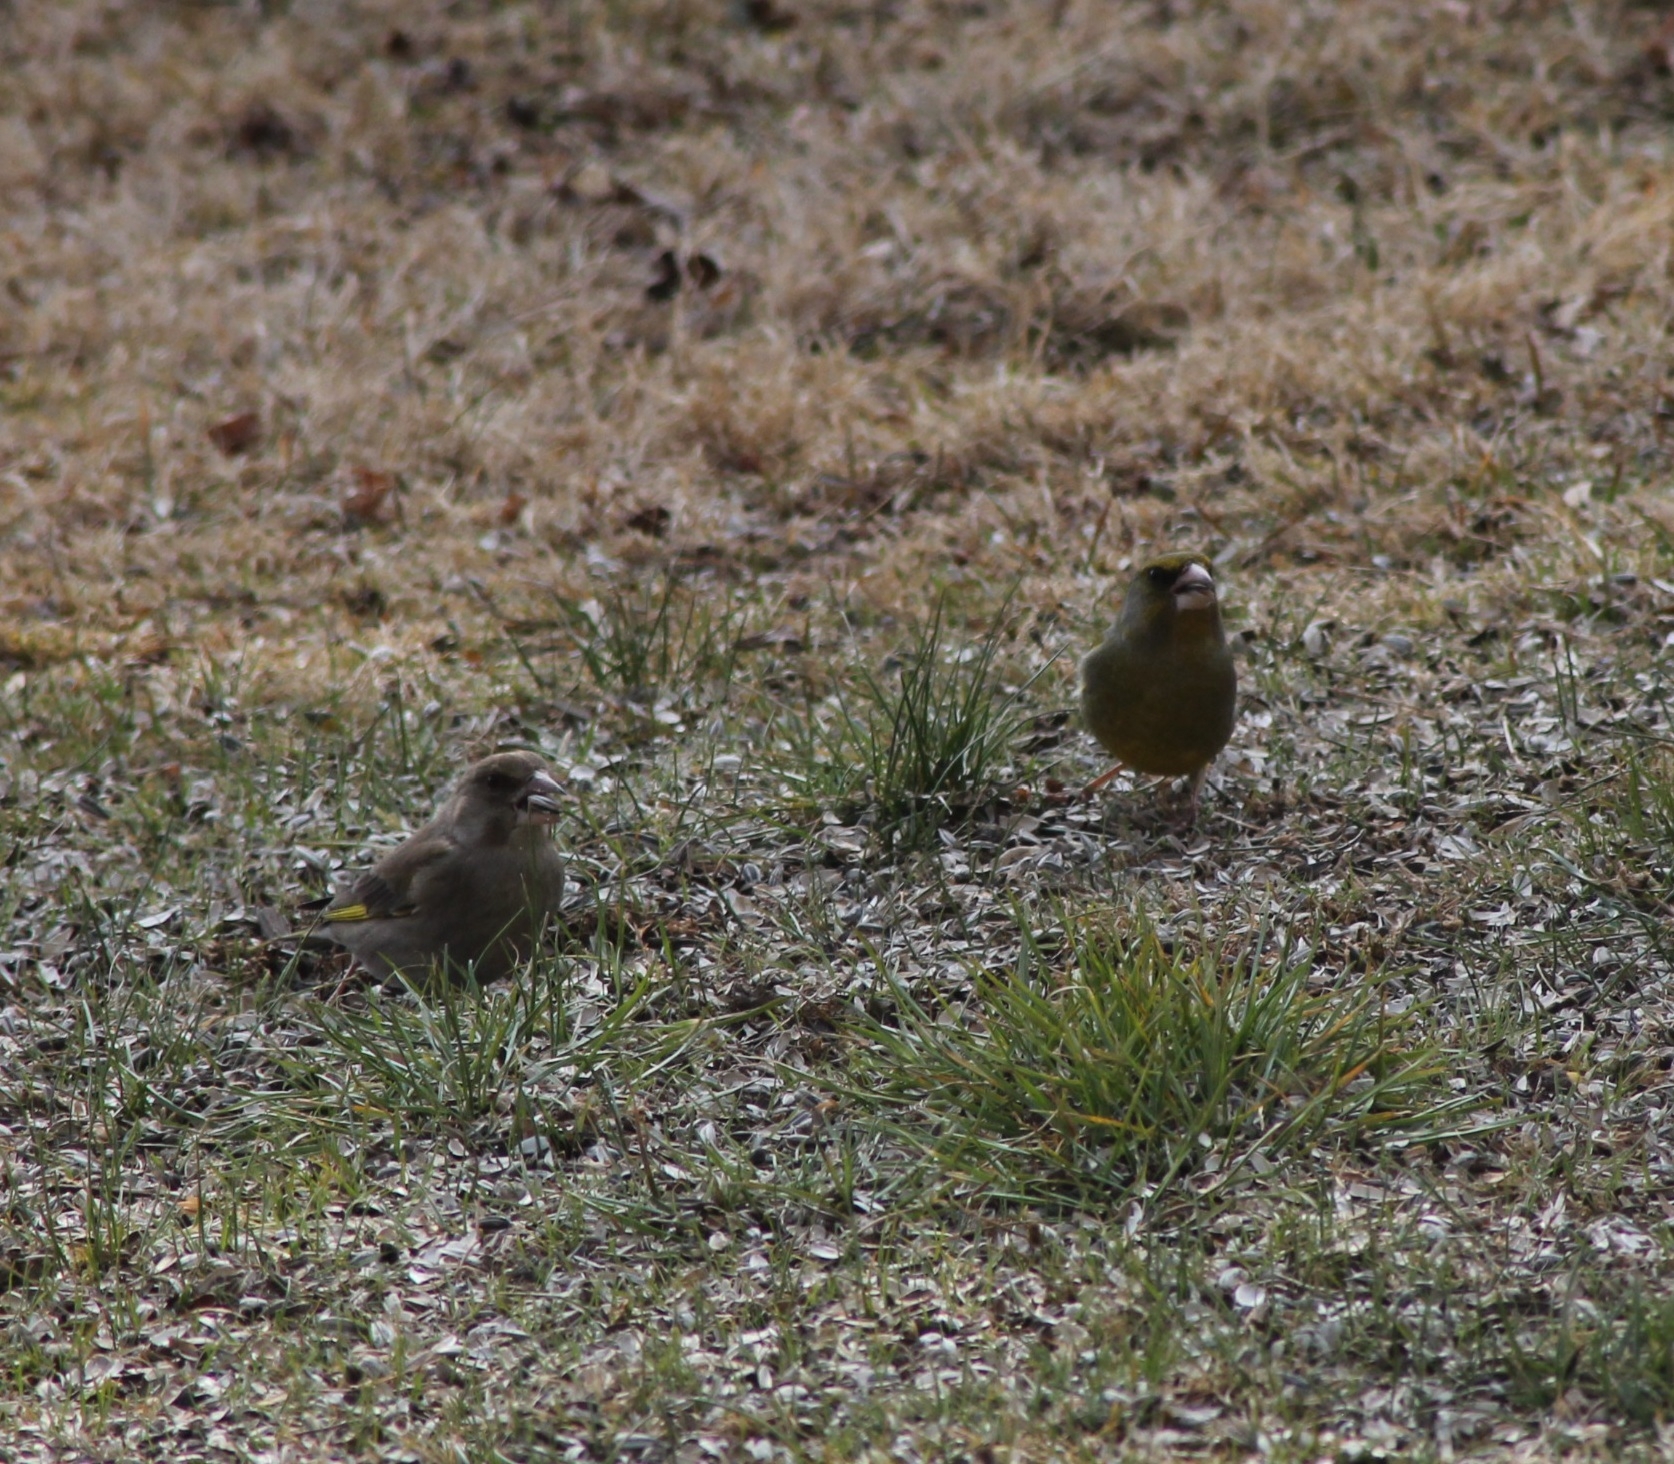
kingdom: Plantae
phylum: Tracheophyta
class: Liliopsida
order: Poales
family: Poaceae
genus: Chloris
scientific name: Chloris chloris
